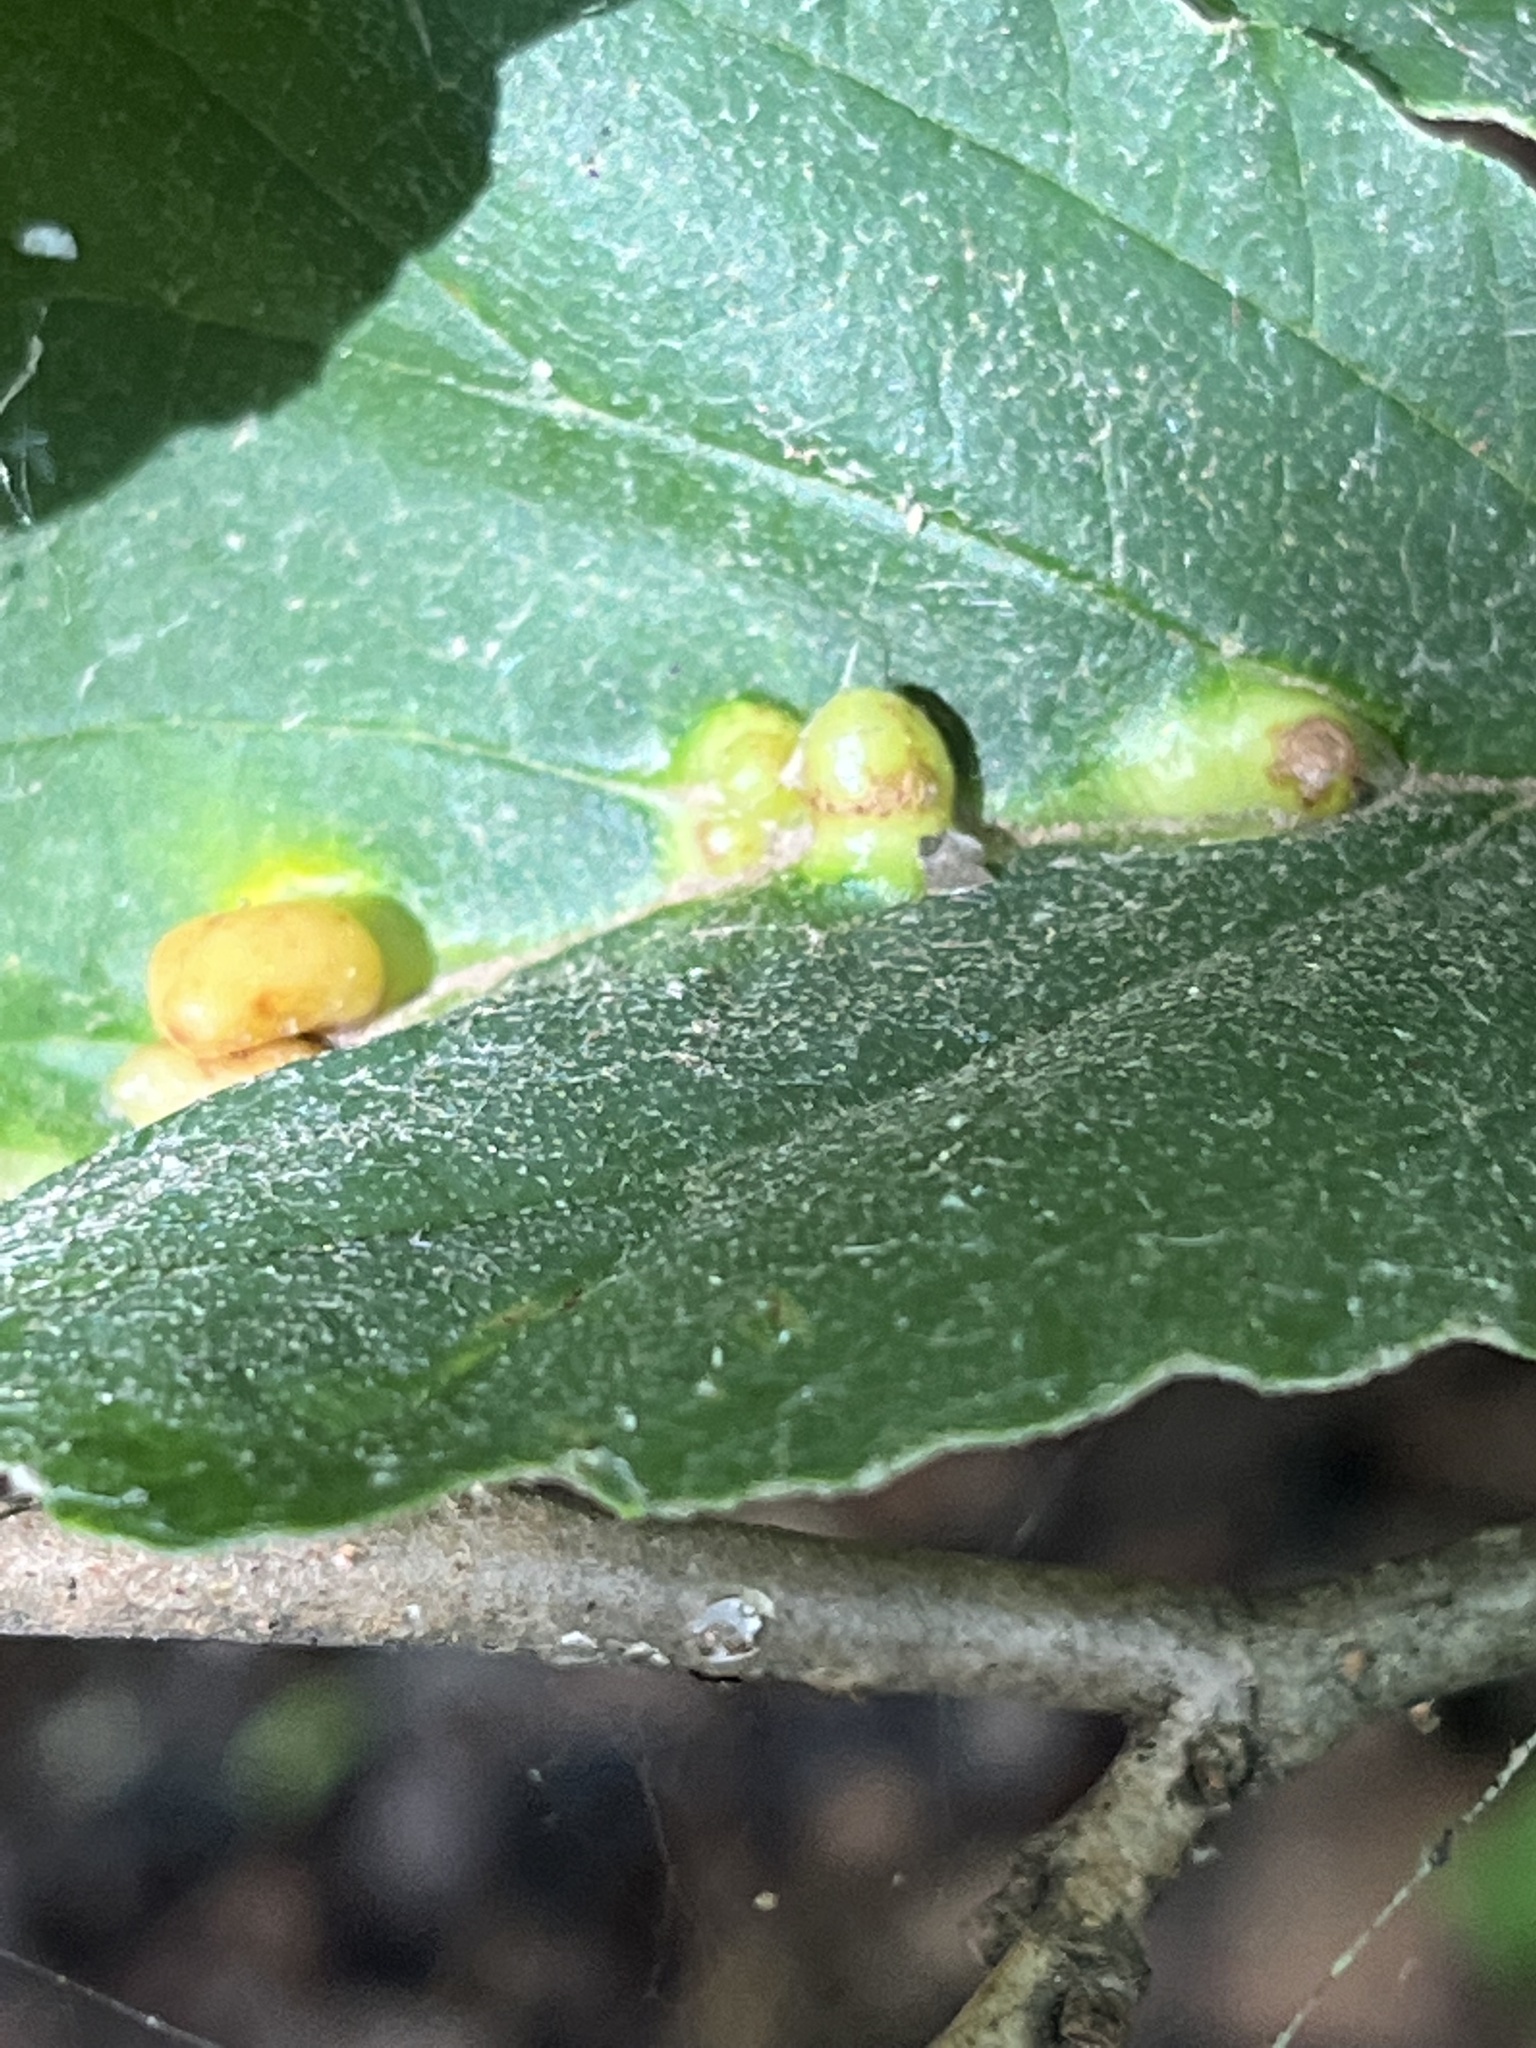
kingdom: Animalia
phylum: Arthropoda
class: Insecta
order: Hemiptera
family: Aphididae
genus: Hormaphis
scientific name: Hormaphis hamamelidis
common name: Witch-hazel cone gall aphid
